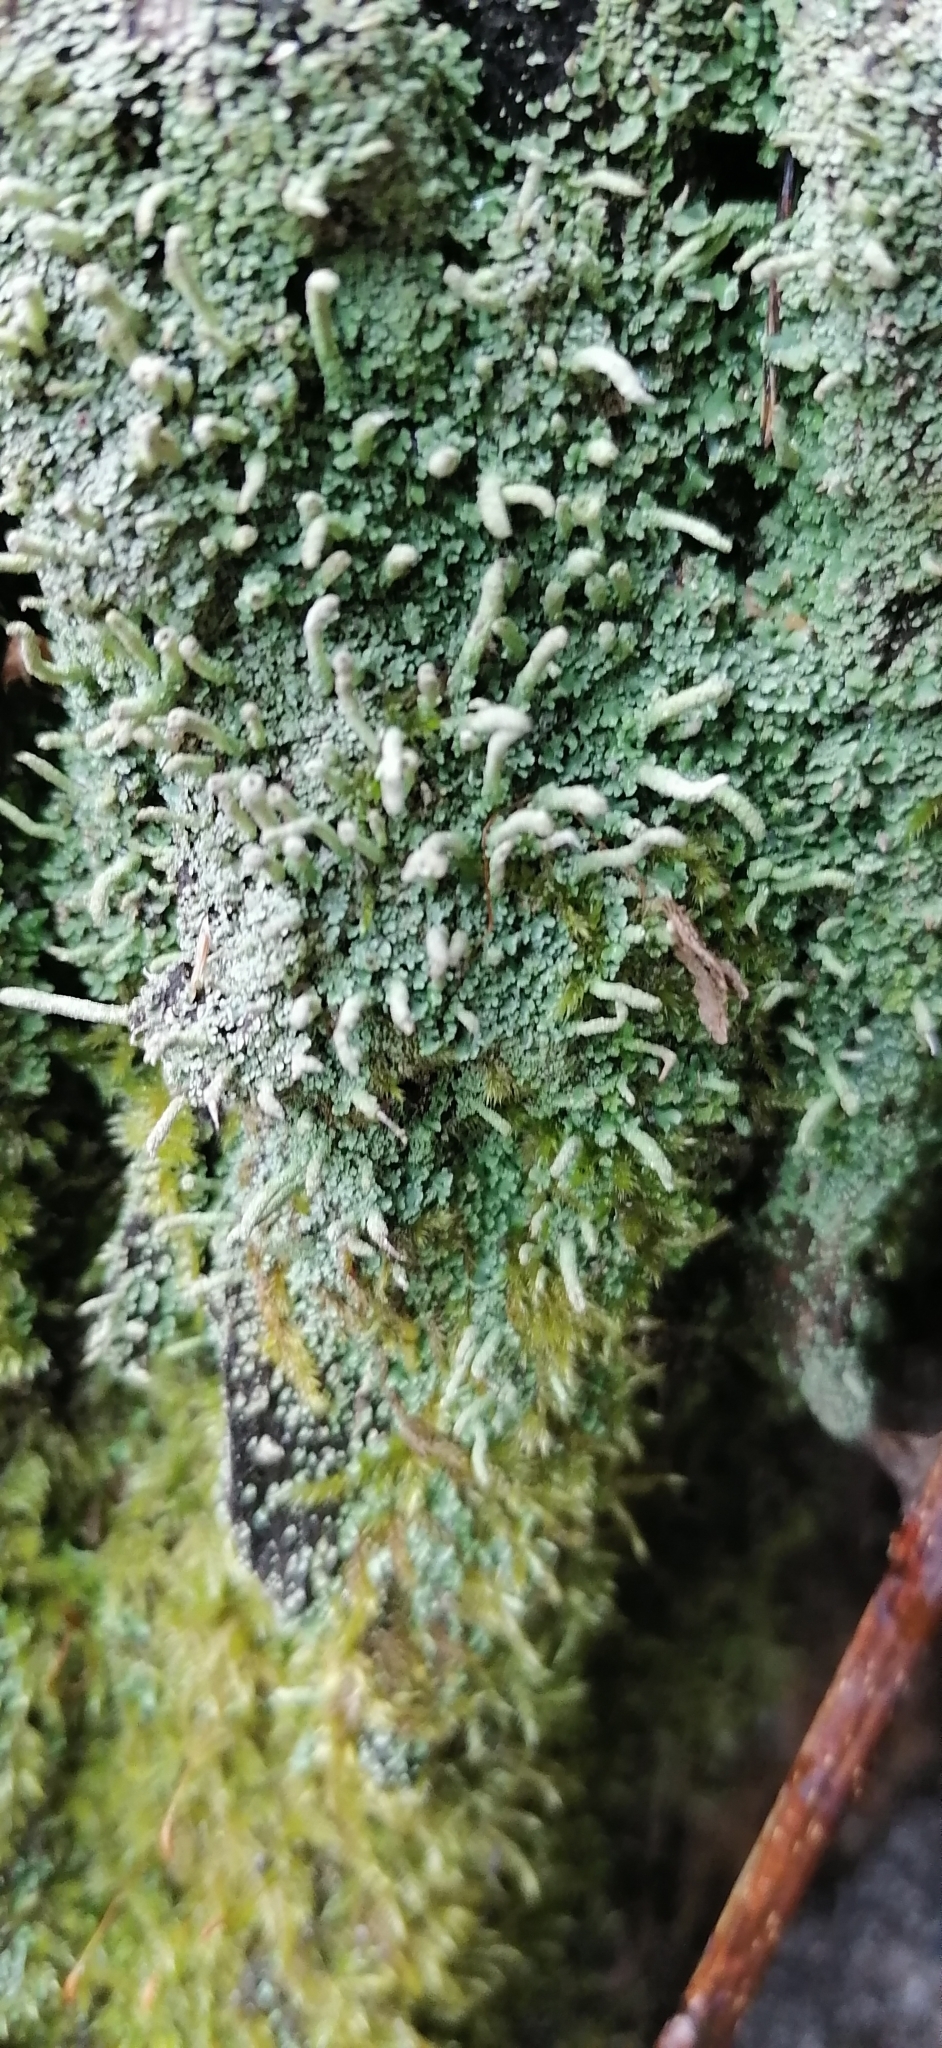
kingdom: Fungi
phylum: Ascomycota
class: Lecanoromycetes
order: Lecanorales
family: Cladoniaceae
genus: Cladonia
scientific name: Cladonia coniocraea
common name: Common powderhorn
